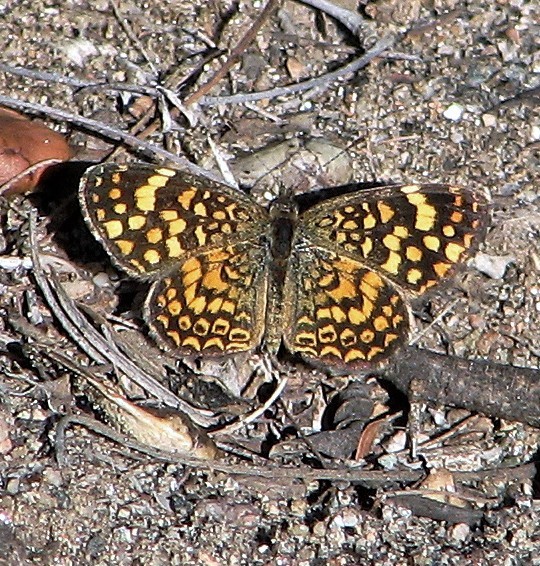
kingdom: Animalia
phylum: Arthropoda
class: Insecta
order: Lepidoptera
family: Nymphalidae
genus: Phystis
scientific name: Phystis simois
